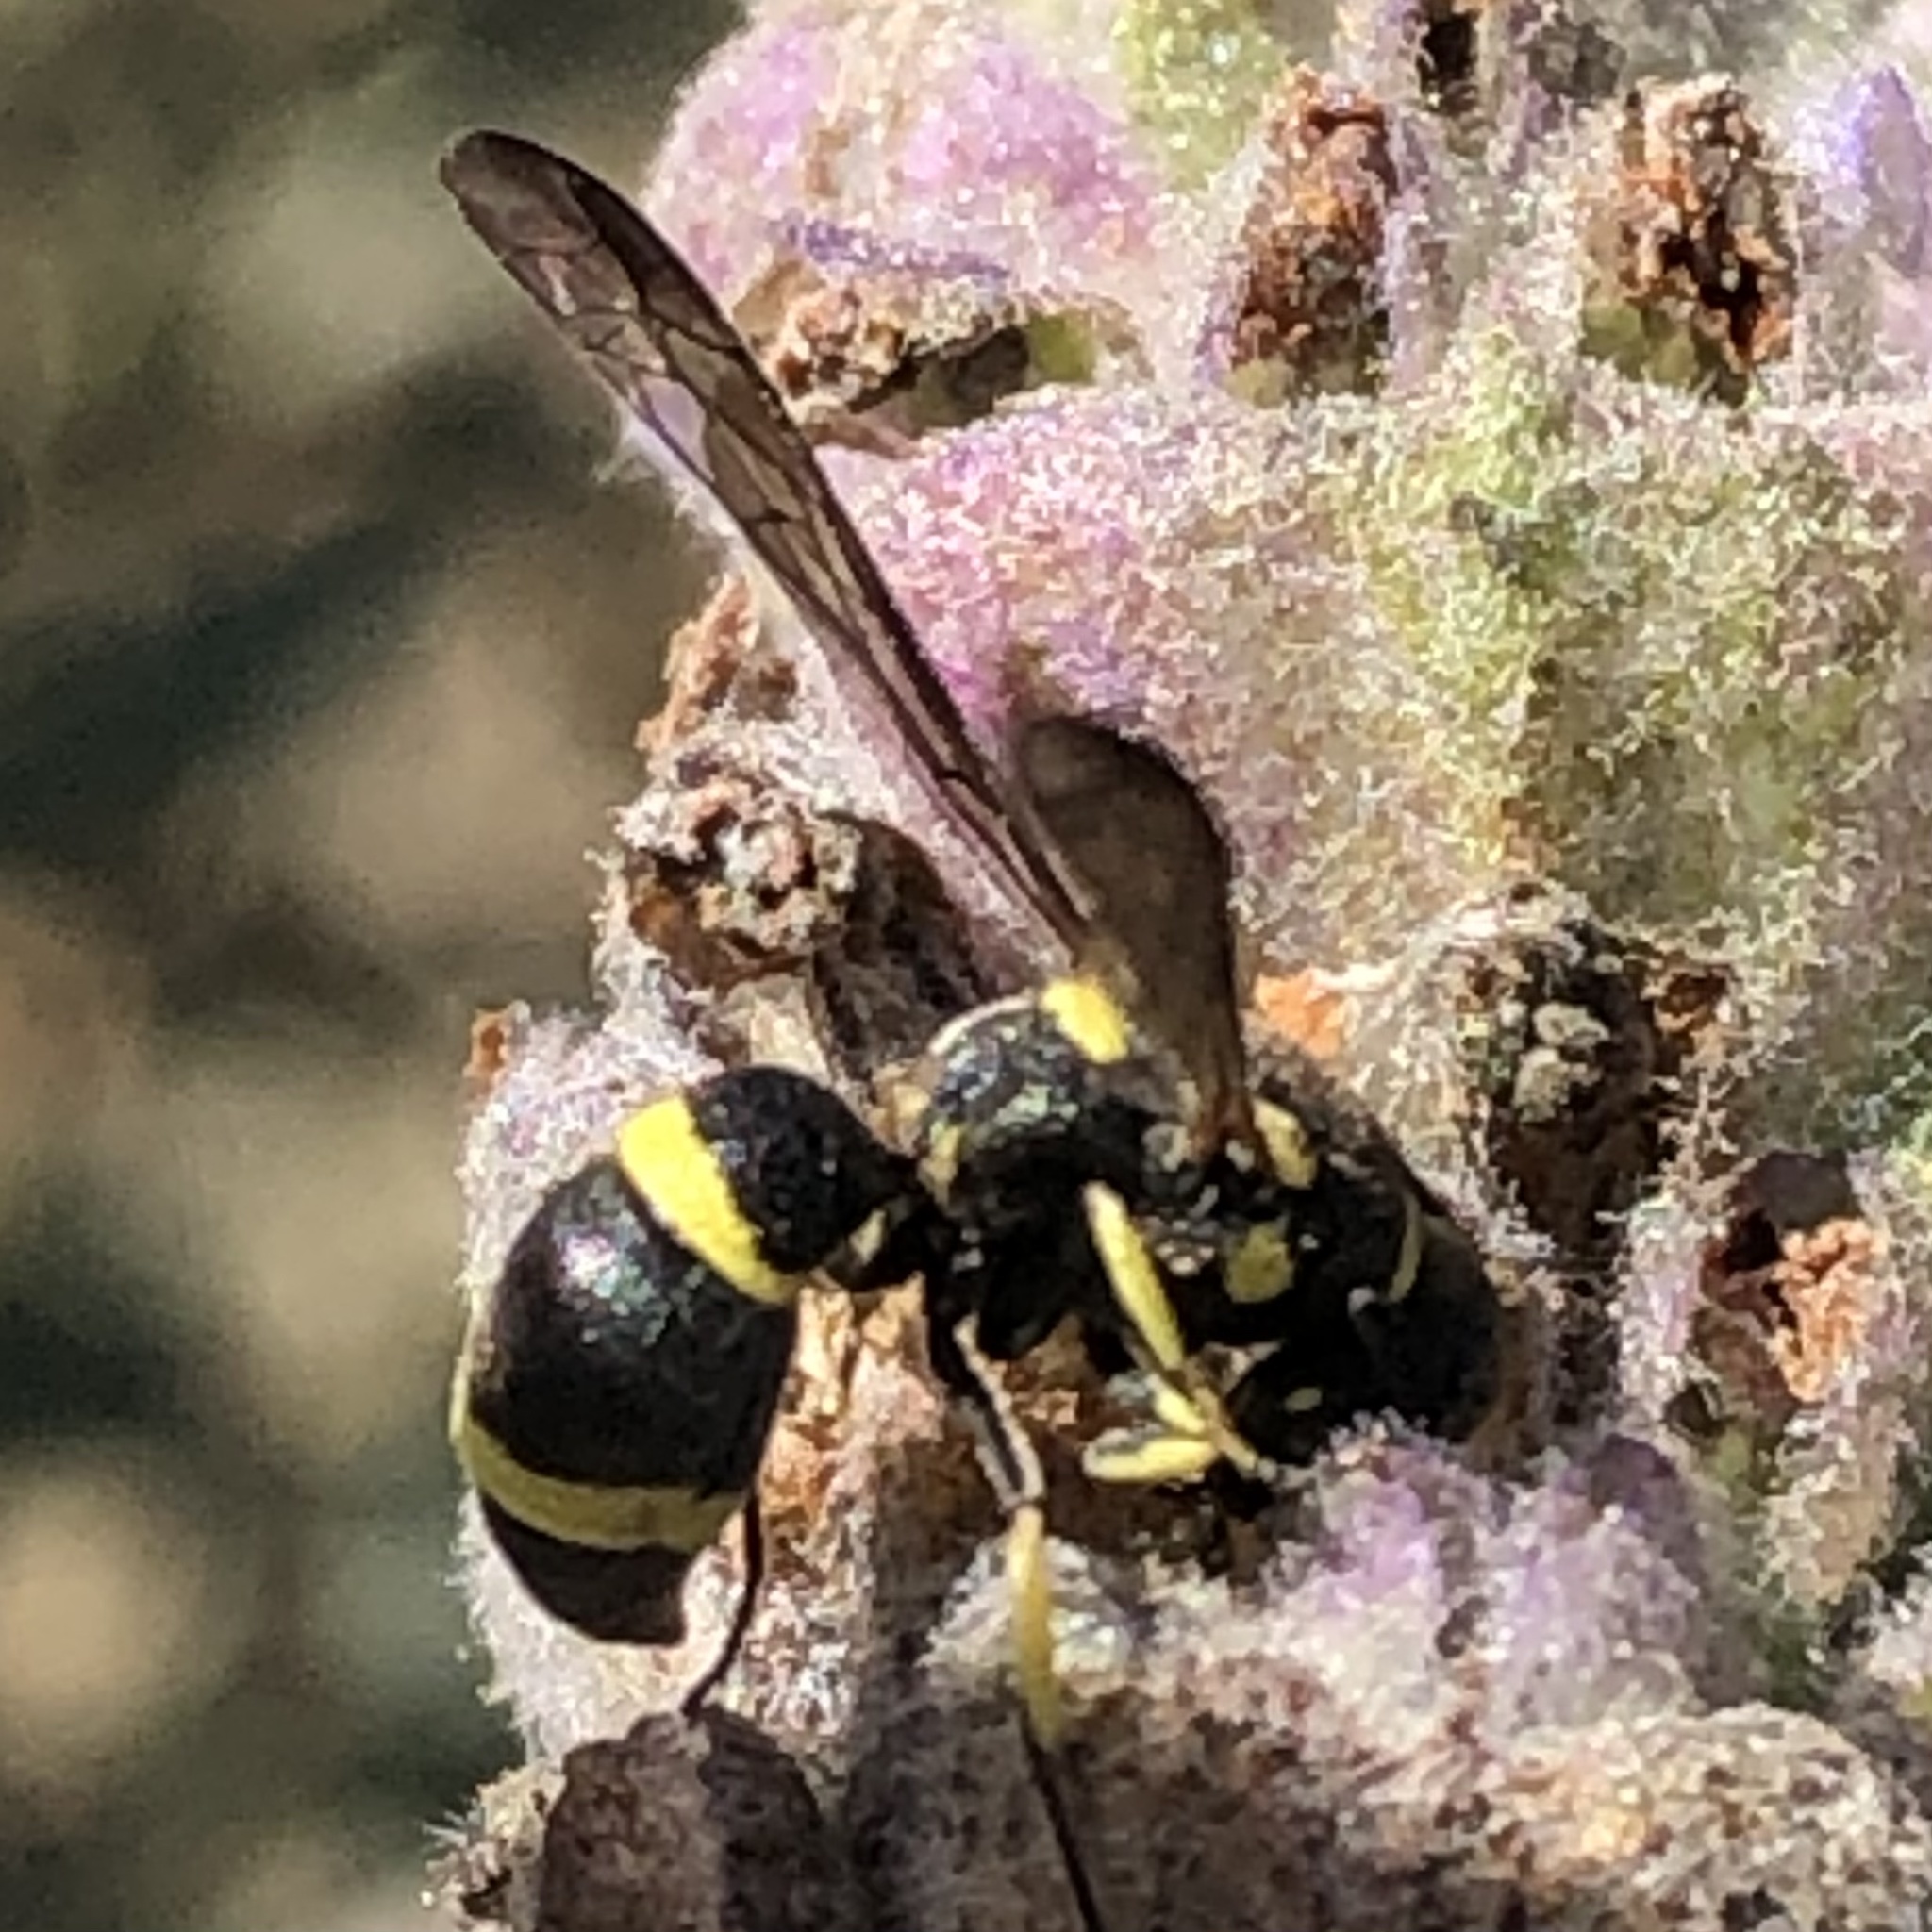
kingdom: Animalia
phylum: Arthropoda
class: Insecta
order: Hymenoptera
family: Eumenidae
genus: Parancistrocerus
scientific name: Parancistrocerus declivatus
